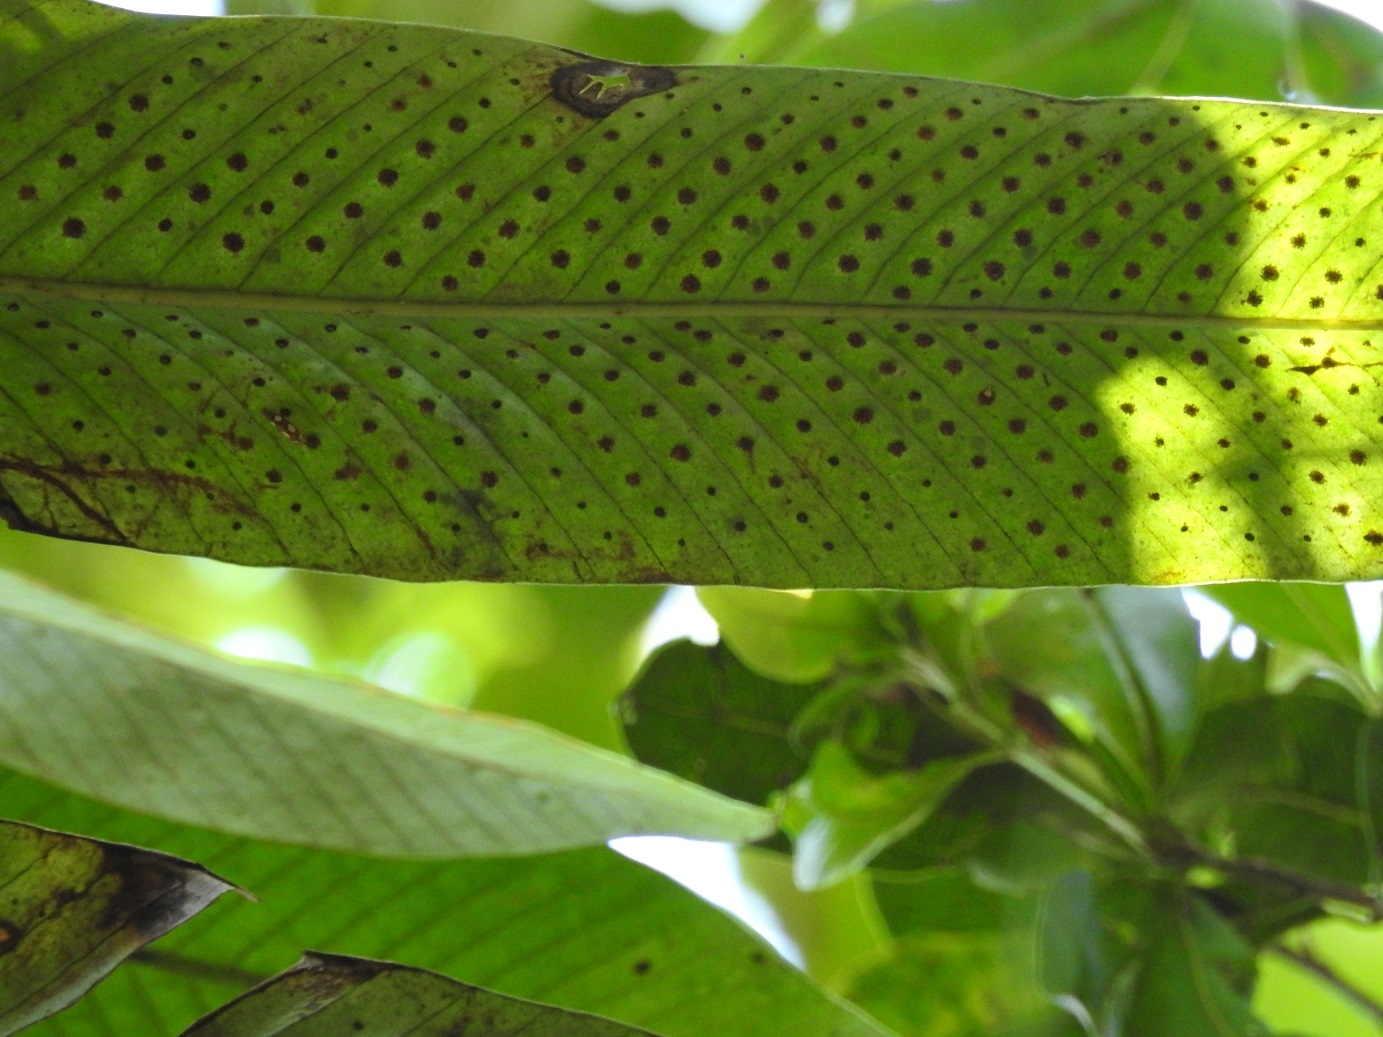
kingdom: Plantae
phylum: Tracheophyta
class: Polypodiopsida
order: Polypodiales
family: Polypodiaceae
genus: Niphidium
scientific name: Niphidium crassifolium
